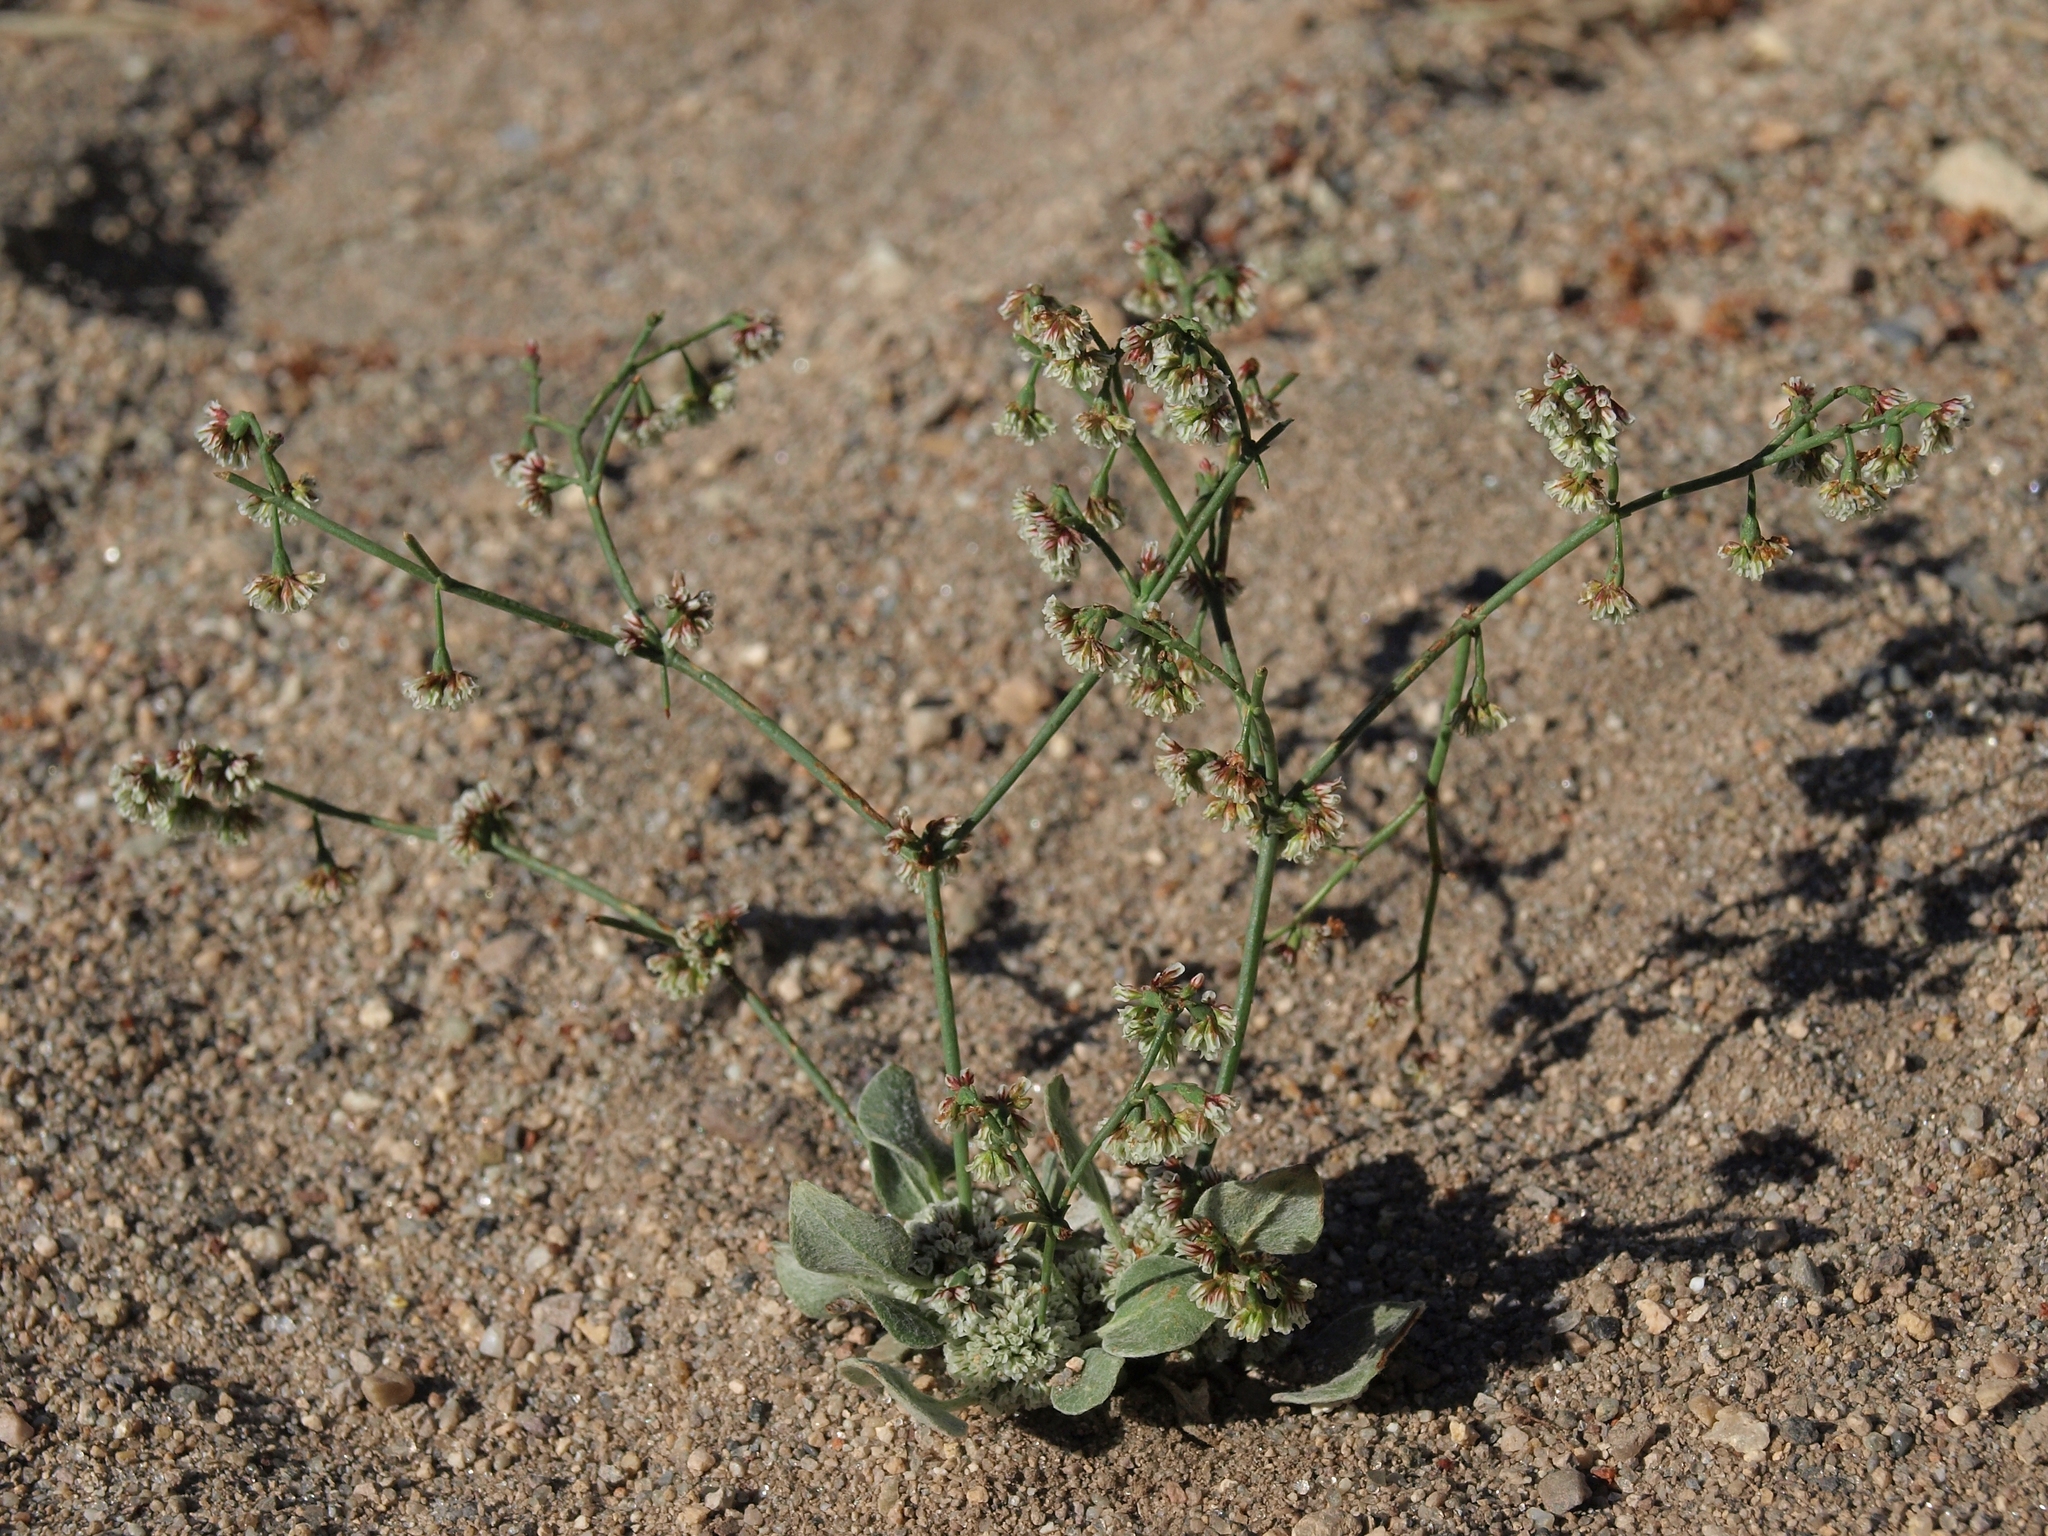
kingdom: Plantae
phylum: Tracheophyta
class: Magnoliopsida
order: Caryophyllales
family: Polygonaceae
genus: Eriogonum
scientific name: Eriogonum cernuum
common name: Nodding wild buckwheat
